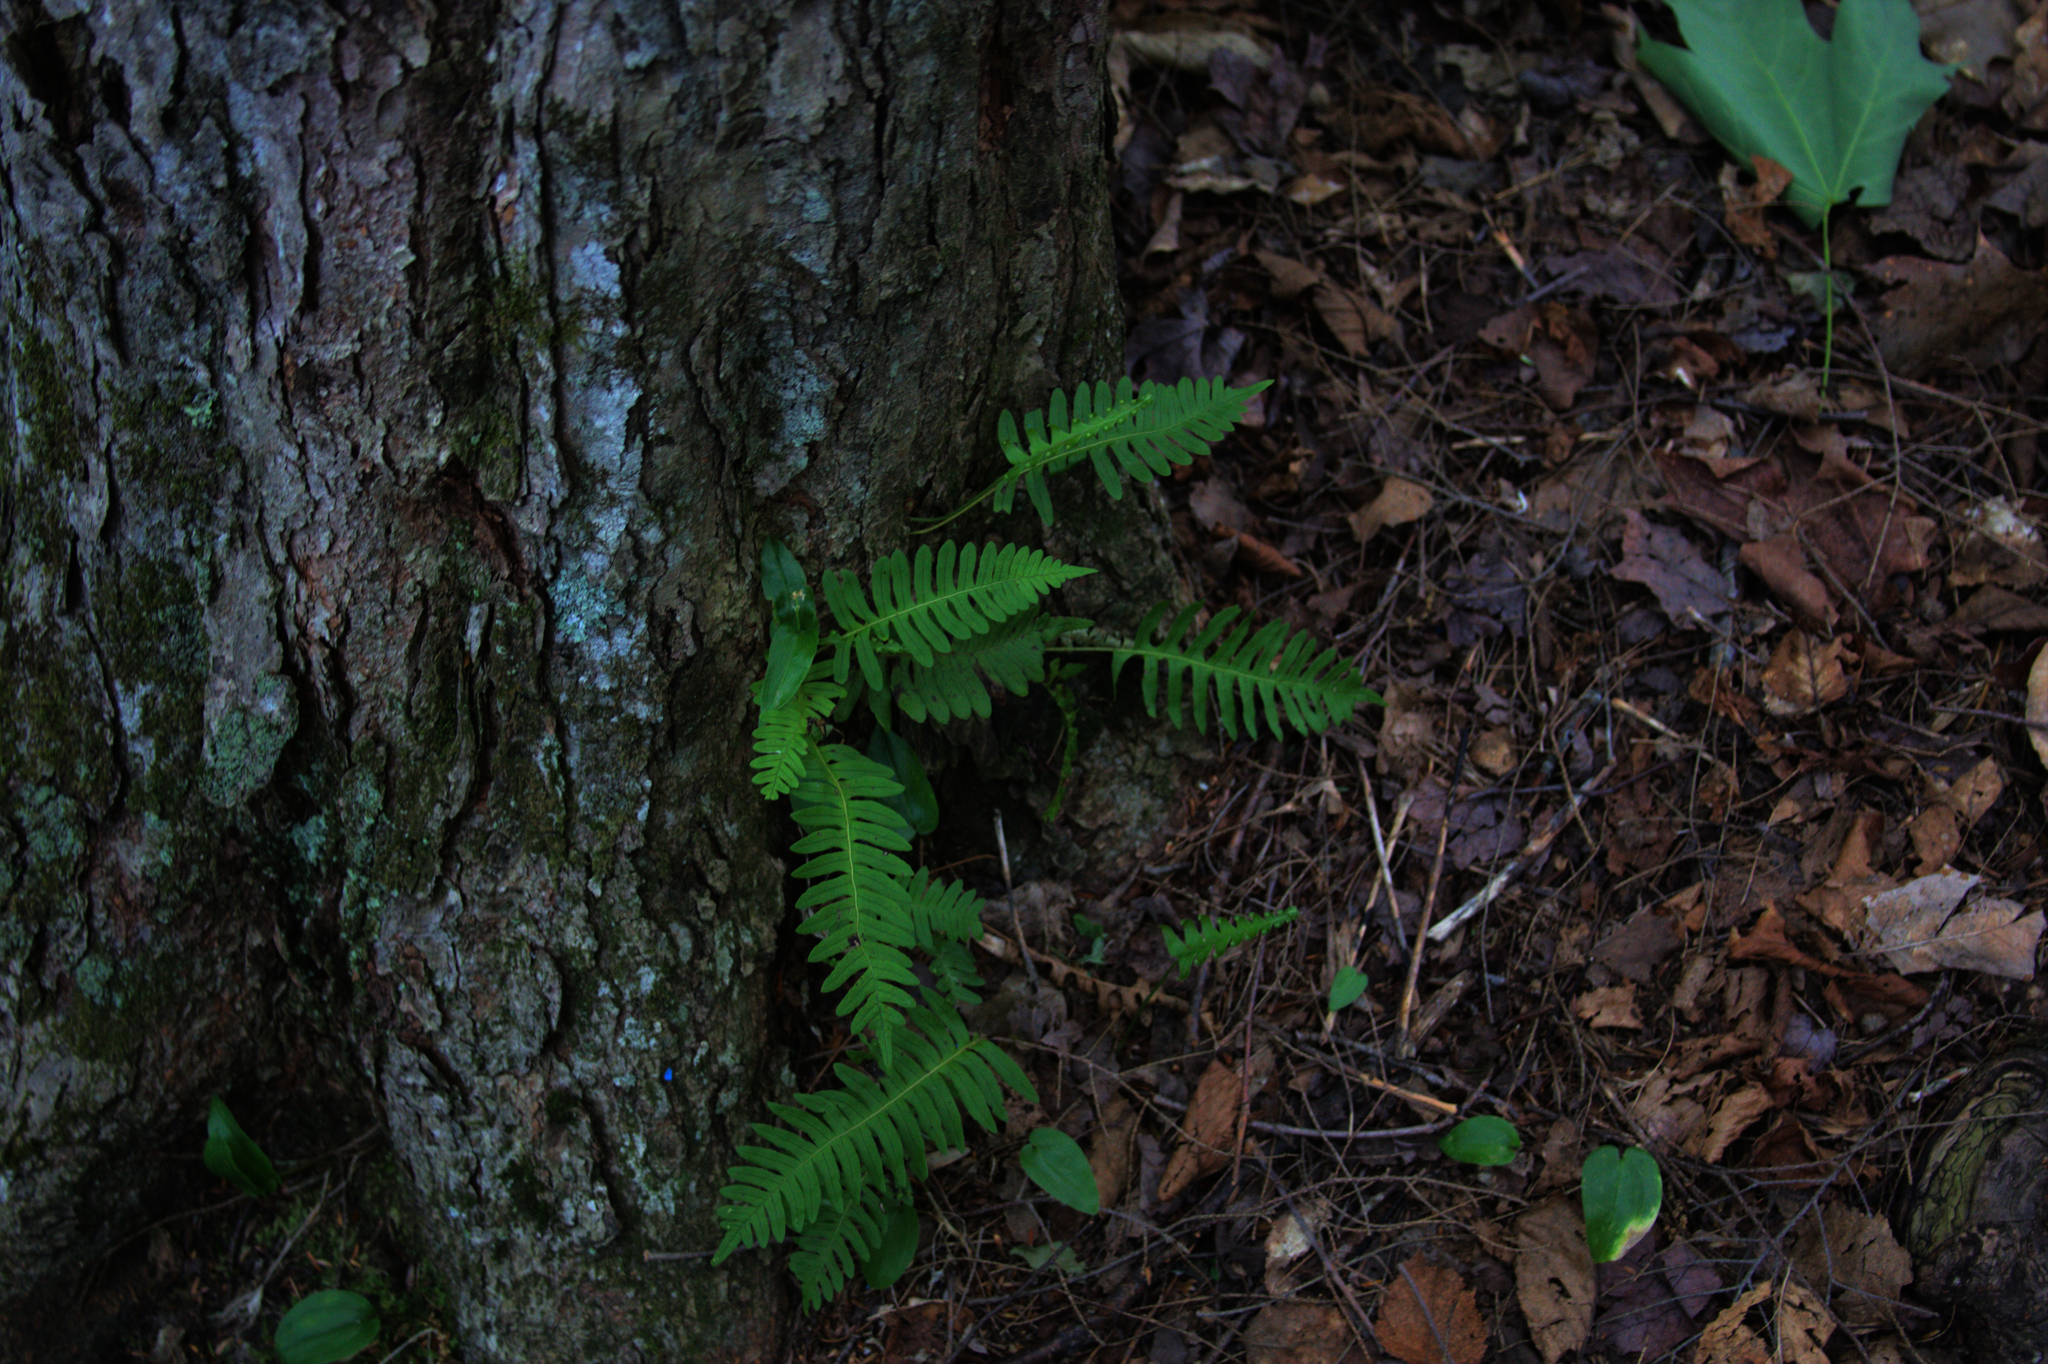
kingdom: Plantae
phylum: Tracheophyta
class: Liliopsida
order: Asparagales
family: Asparagaceae
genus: Maianthemum
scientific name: Maianthemum canadense
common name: False lily-of-the-valley
